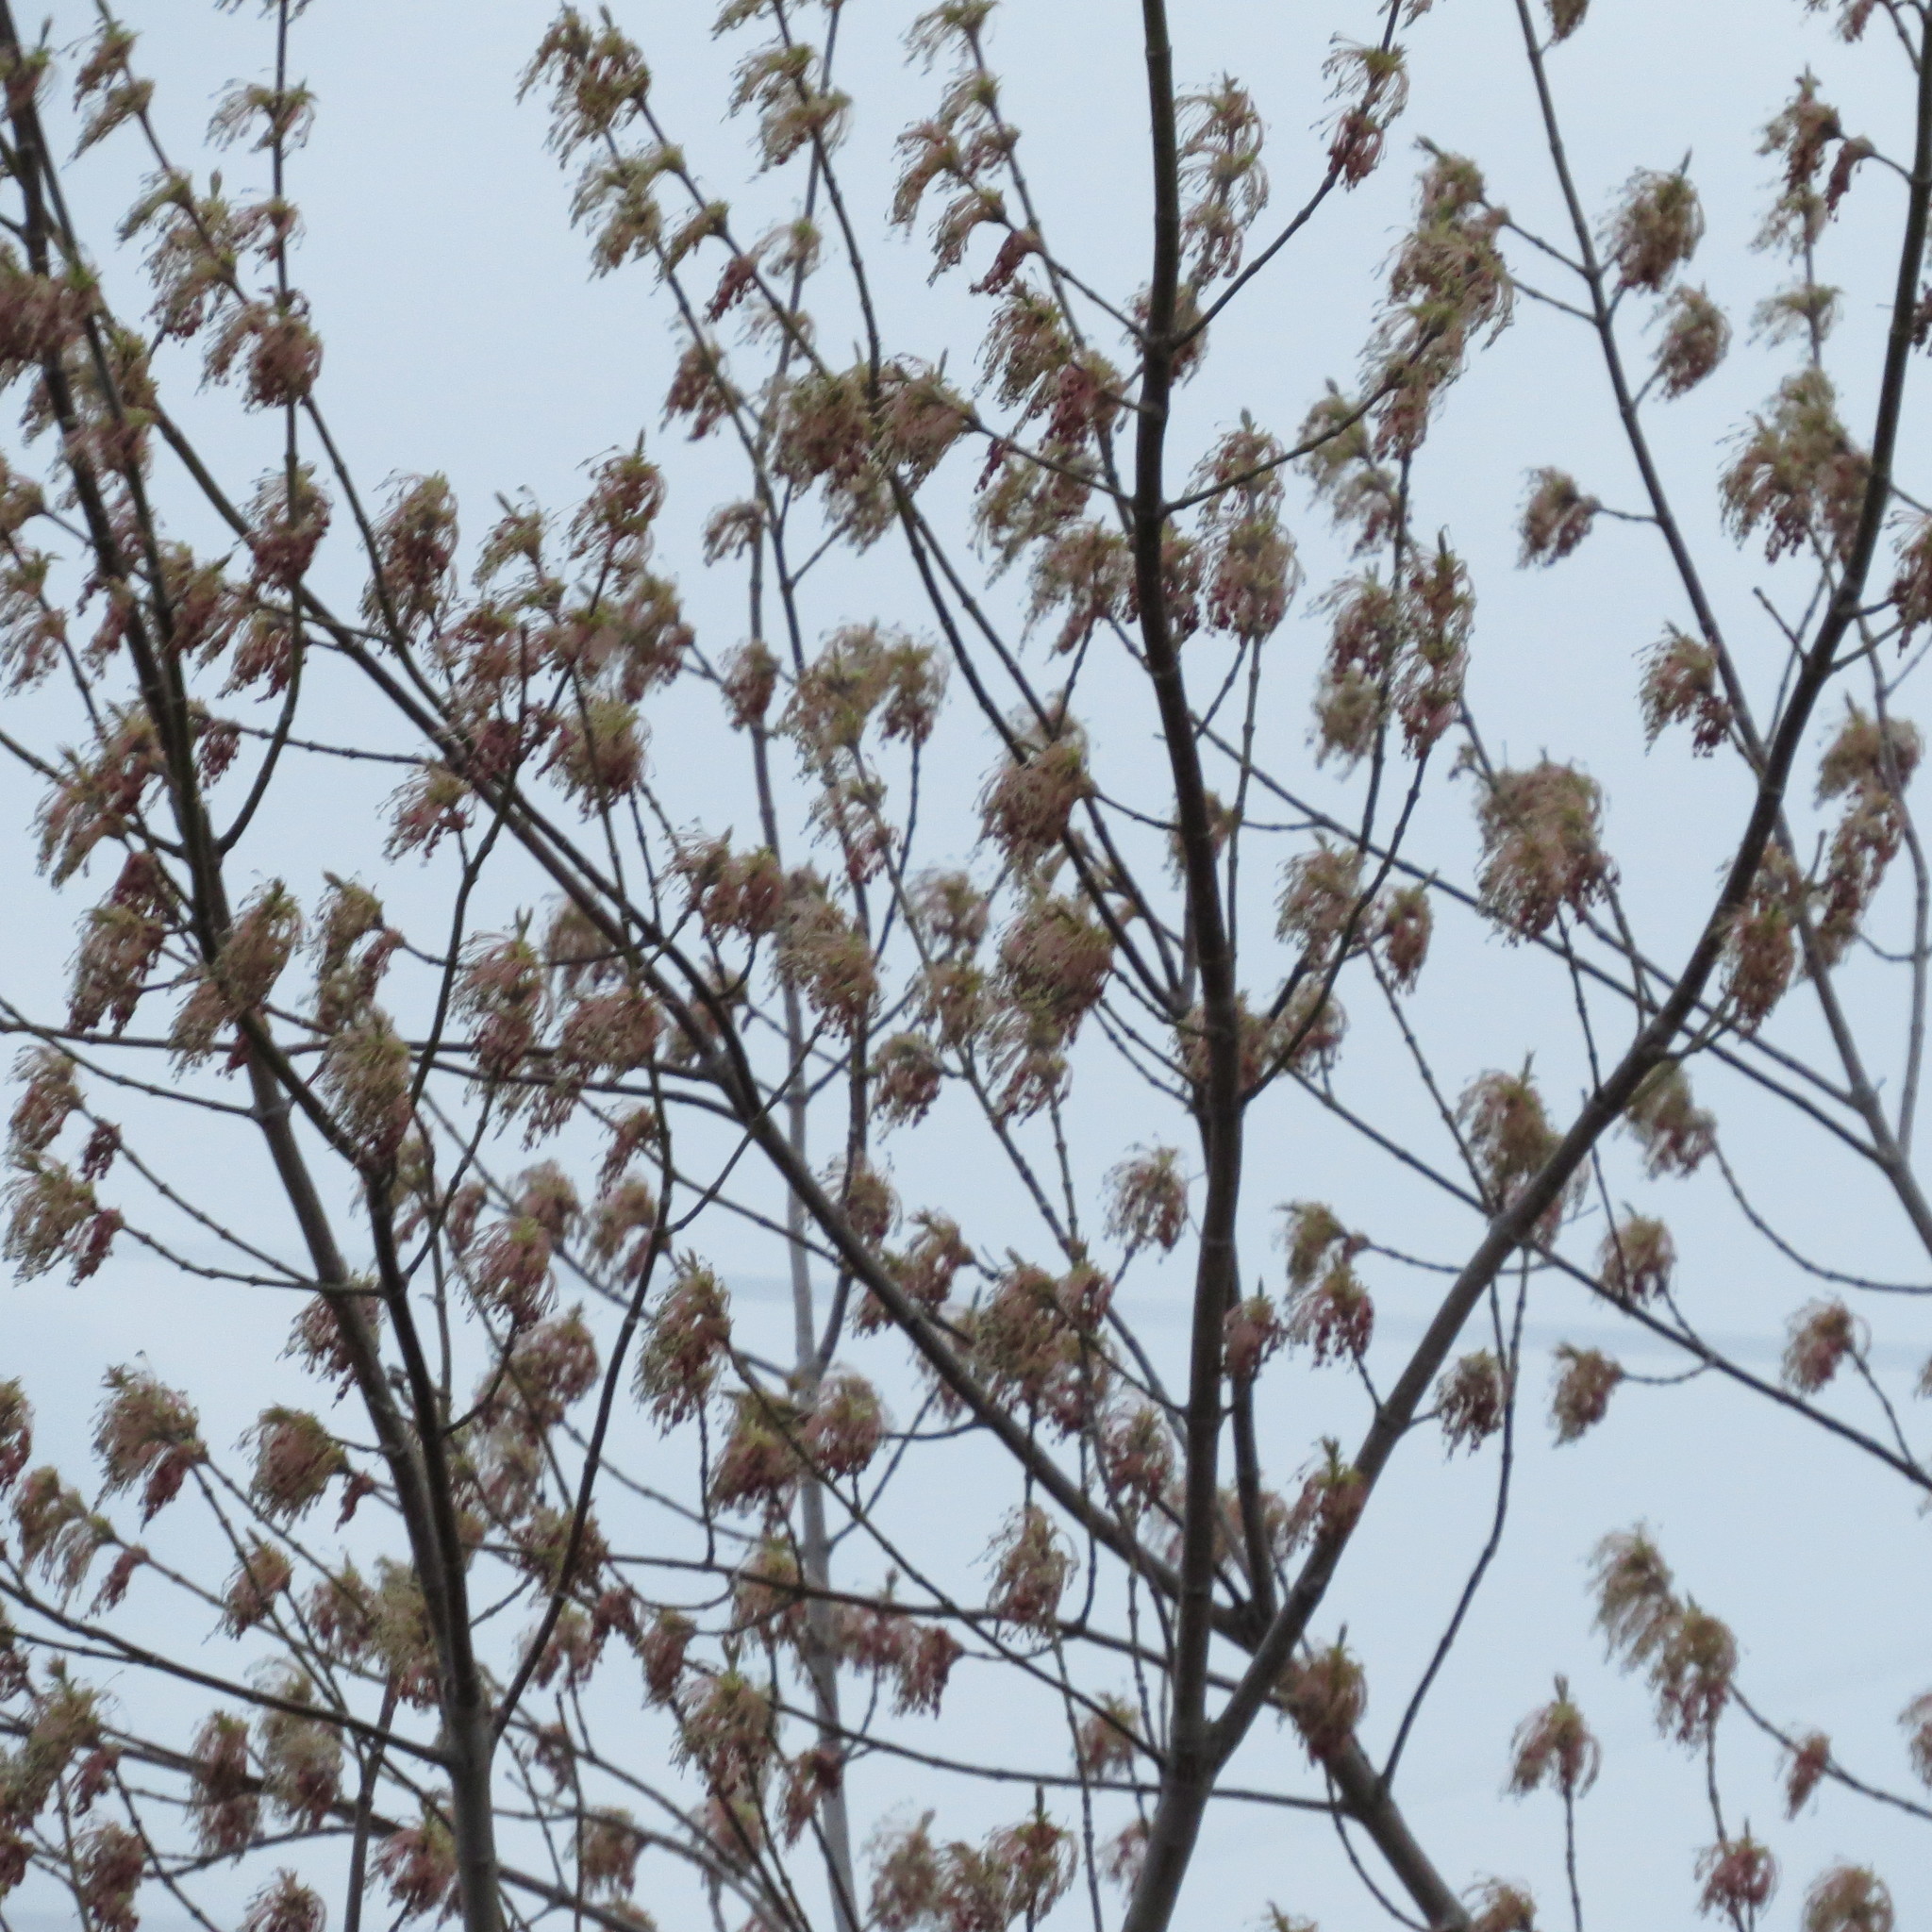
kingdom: Plantae
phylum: Tracheophyta
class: Magnoliopsida
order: Sapindales
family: Sapindaceae
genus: Acer
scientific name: Acer negundo
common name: Ashleaf maple
